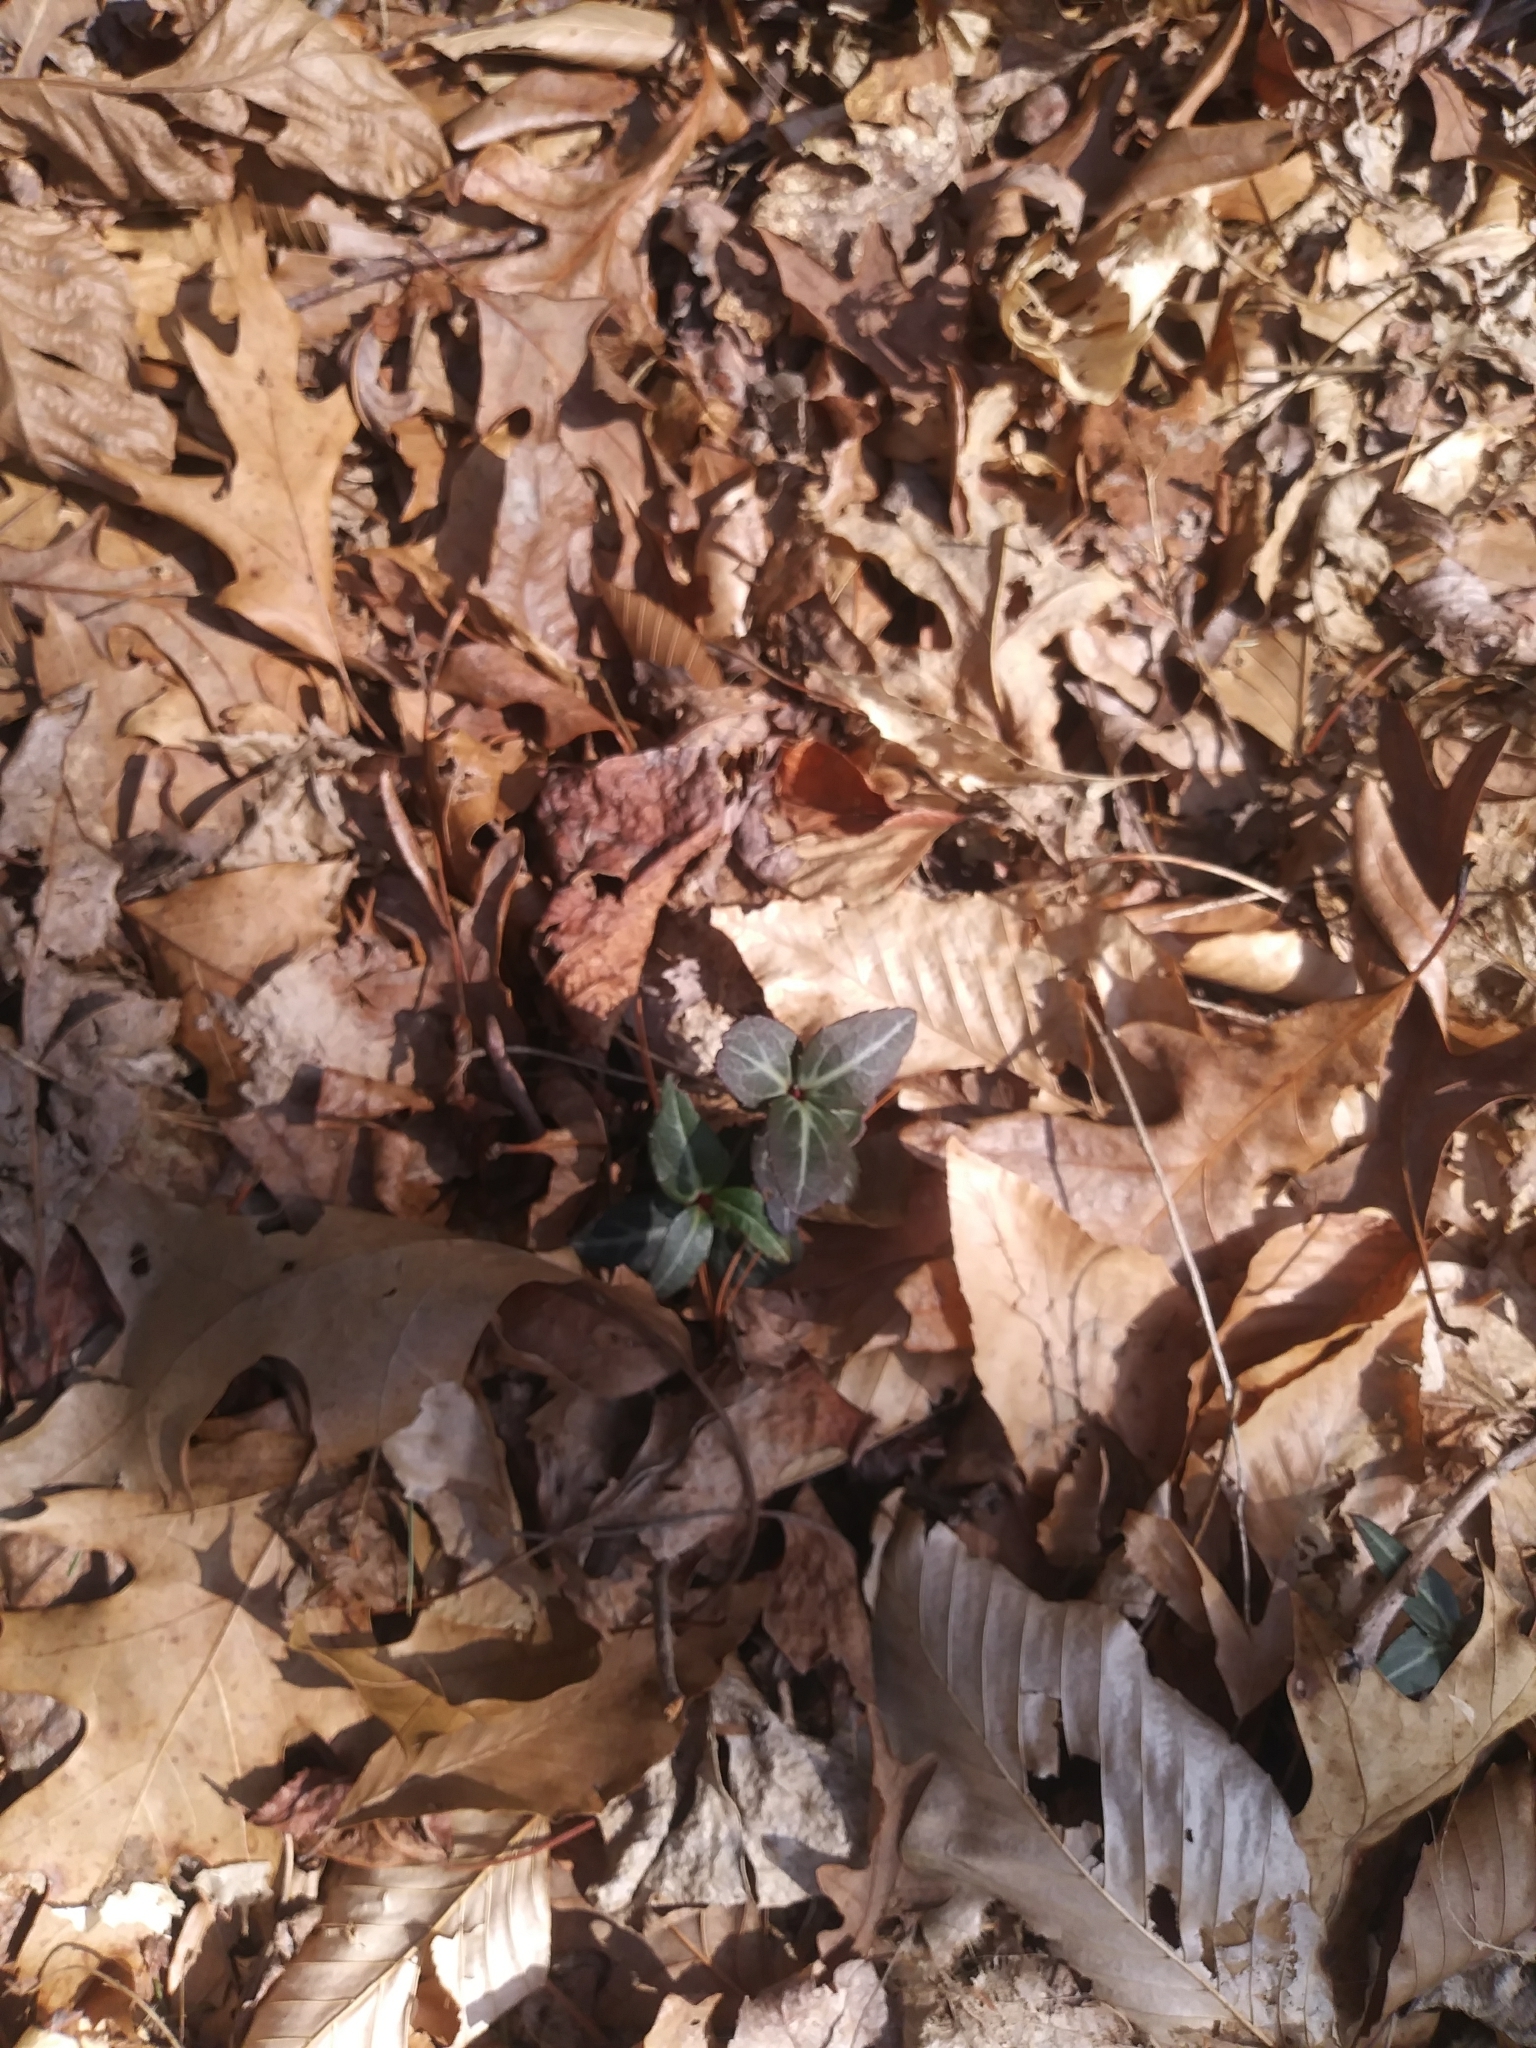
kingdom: Plantae
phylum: Tracheophyta
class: Magnoliopsida
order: Ericales
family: Ericaceae
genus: Chimaphila
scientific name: Chimaphila maculata
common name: Spotted pipsissewa
